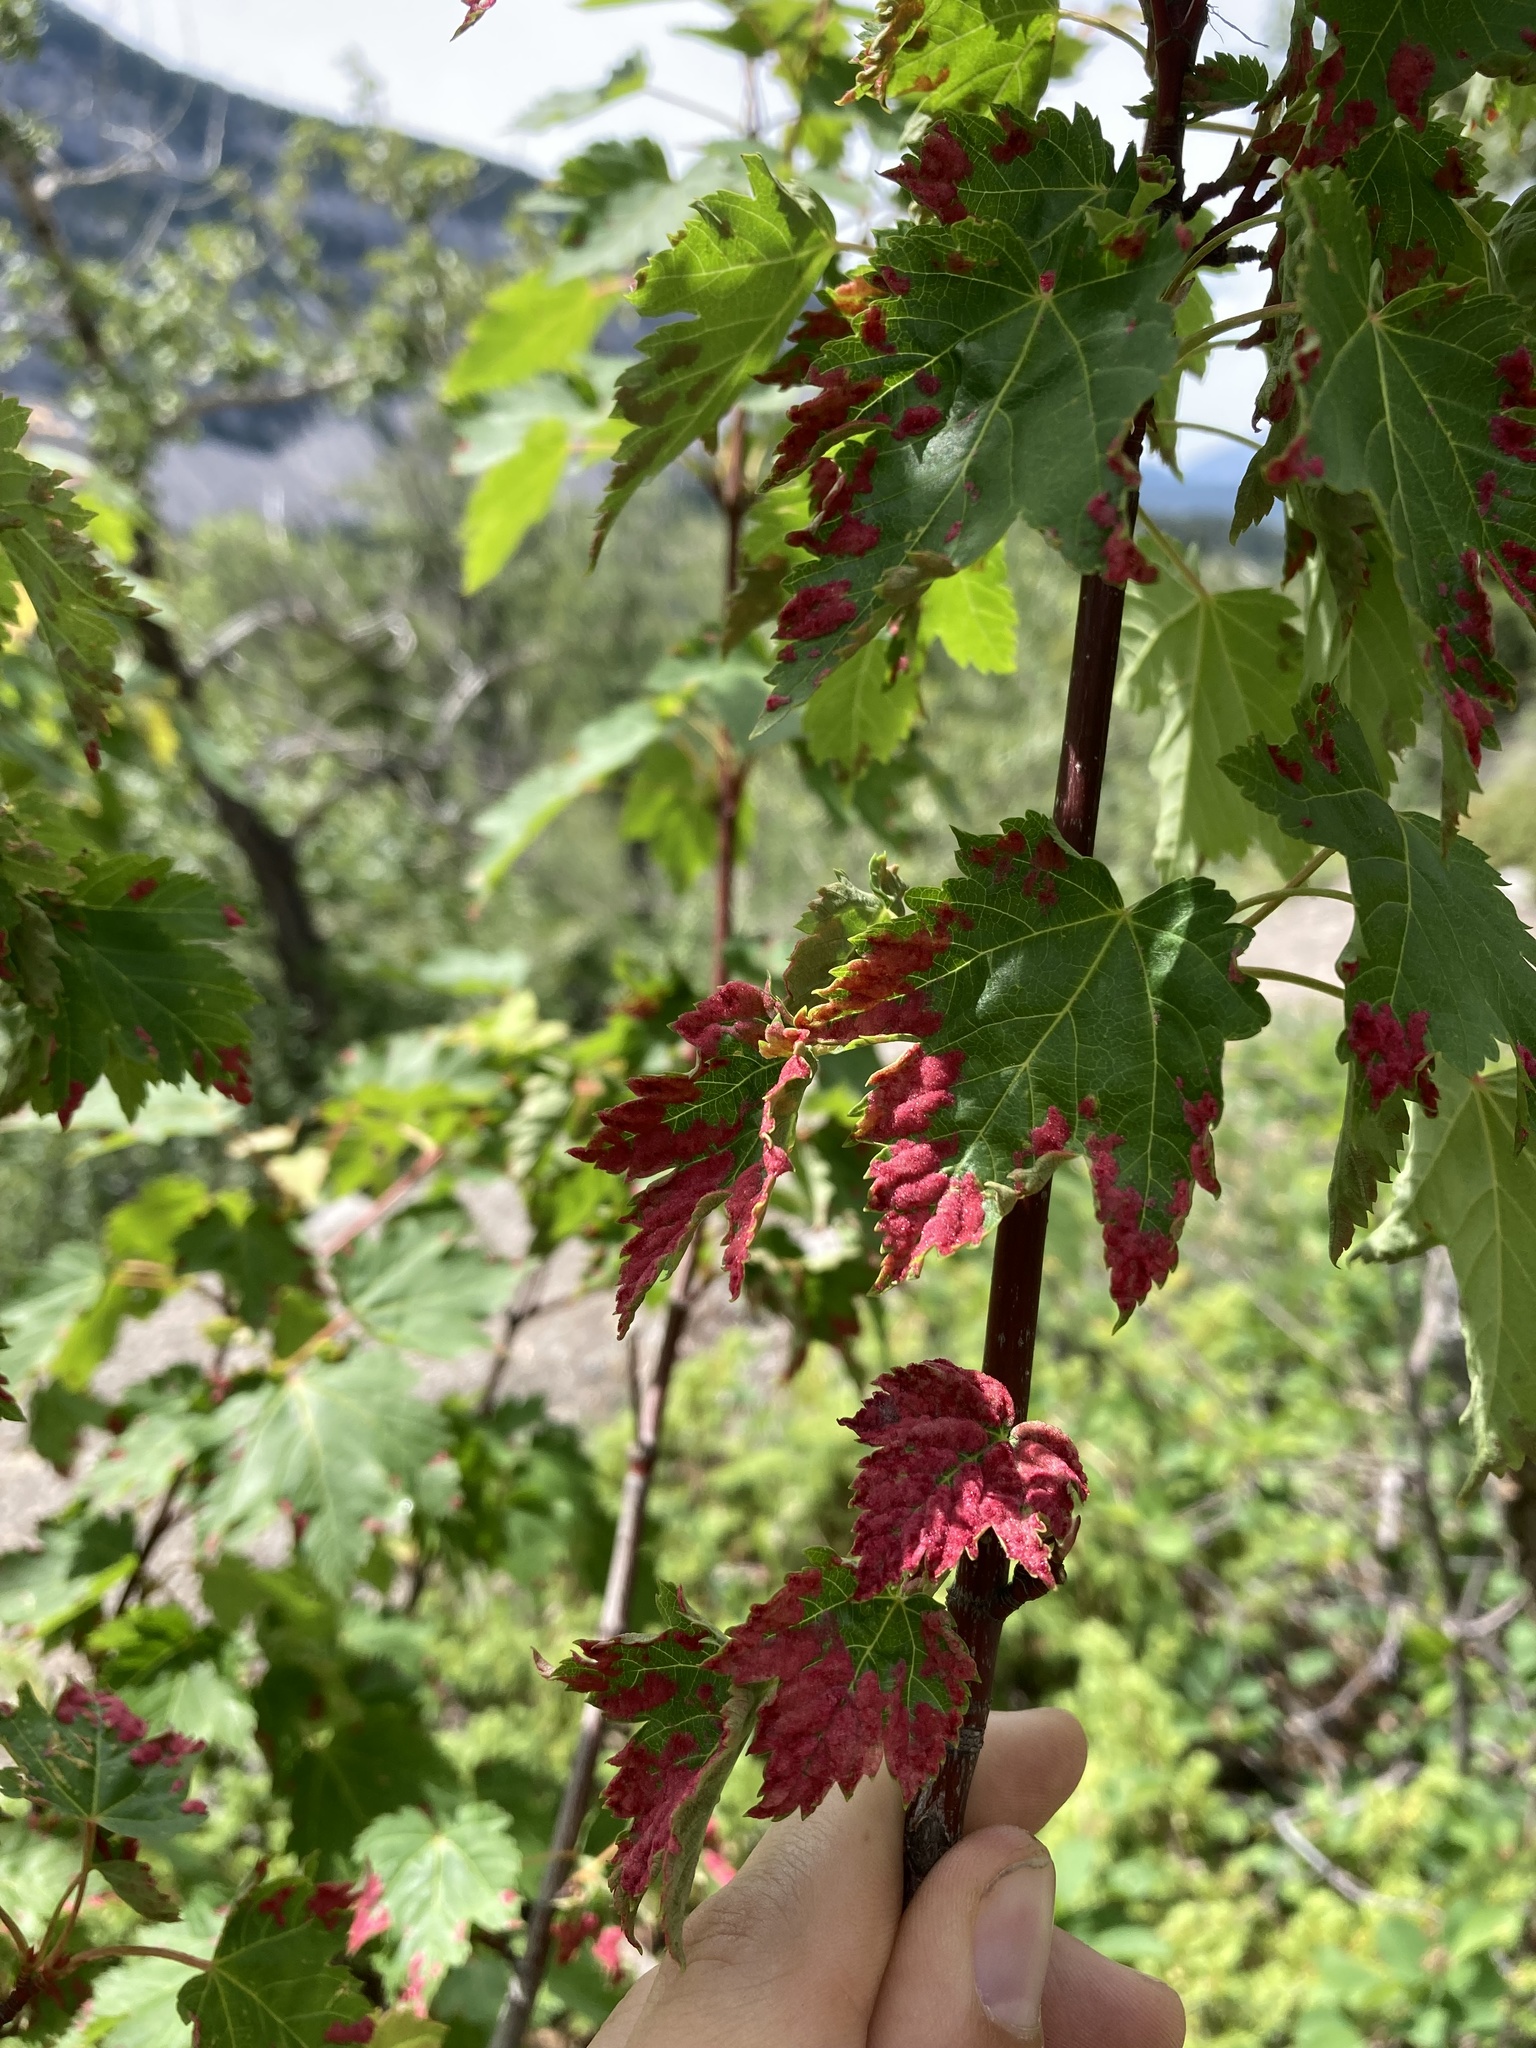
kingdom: Animalia
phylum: Arthropoda
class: Arachnida
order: Trombidiformes
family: Eriophyidae
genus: Aceria
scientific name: Aceria
